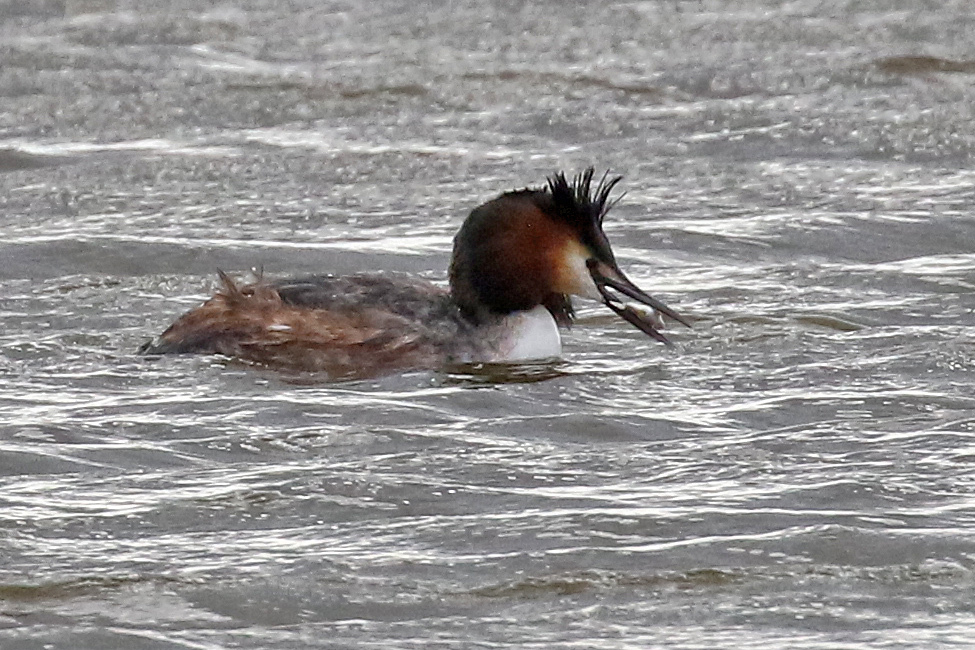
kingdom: Animalia
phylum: Chordata
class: Aves
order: Podicipediformes
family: Podicipedidae
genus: Podiceps
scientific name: Podiceps cristatus
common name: Great crested grebe
